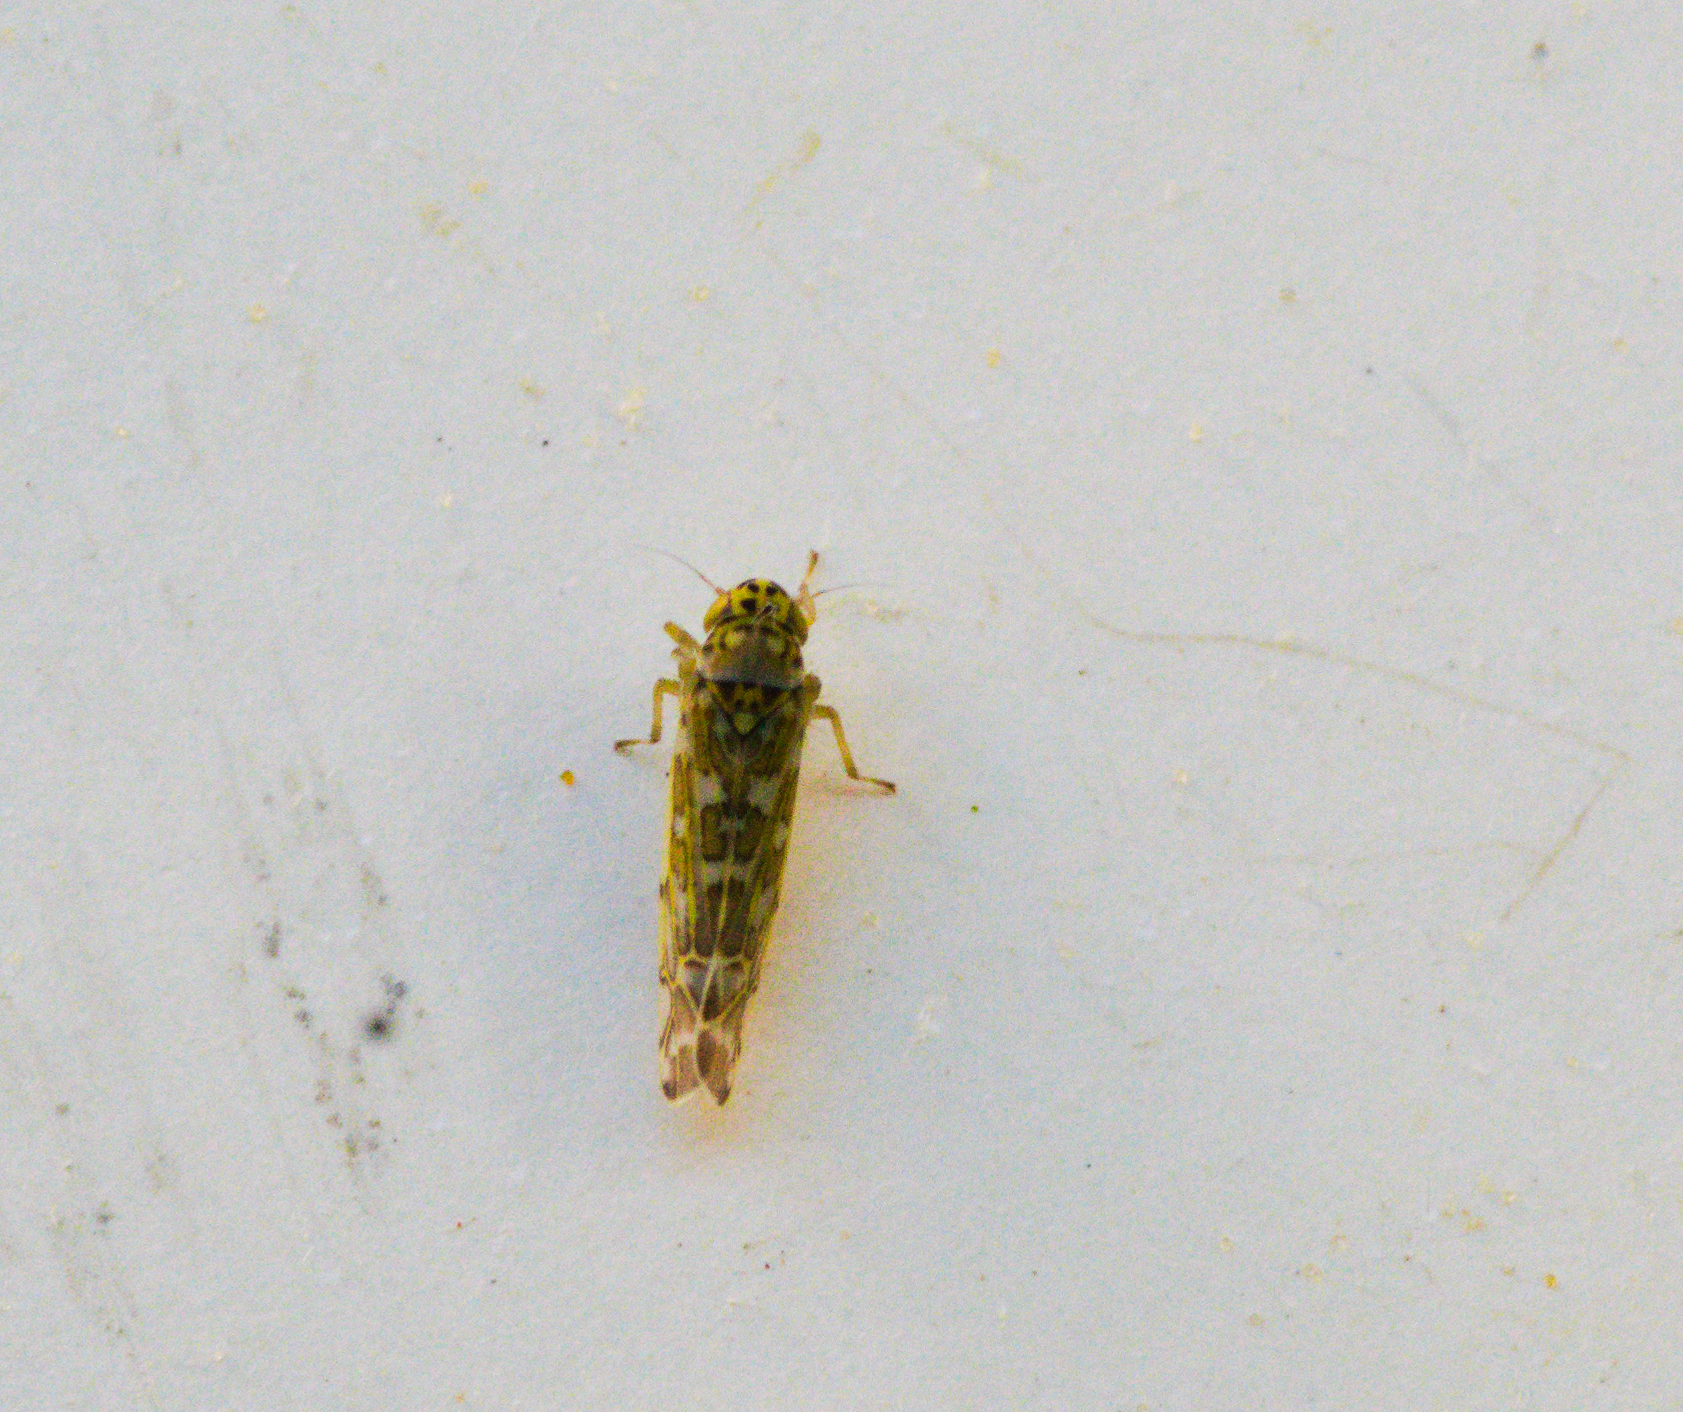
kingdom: Animalia
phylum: Arthropoda
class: Insecta
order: Hemiptera
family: Cicadellidae
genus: Eupteryx
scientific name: Eupteryx decemnotata
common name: Ligurian leafhopper
